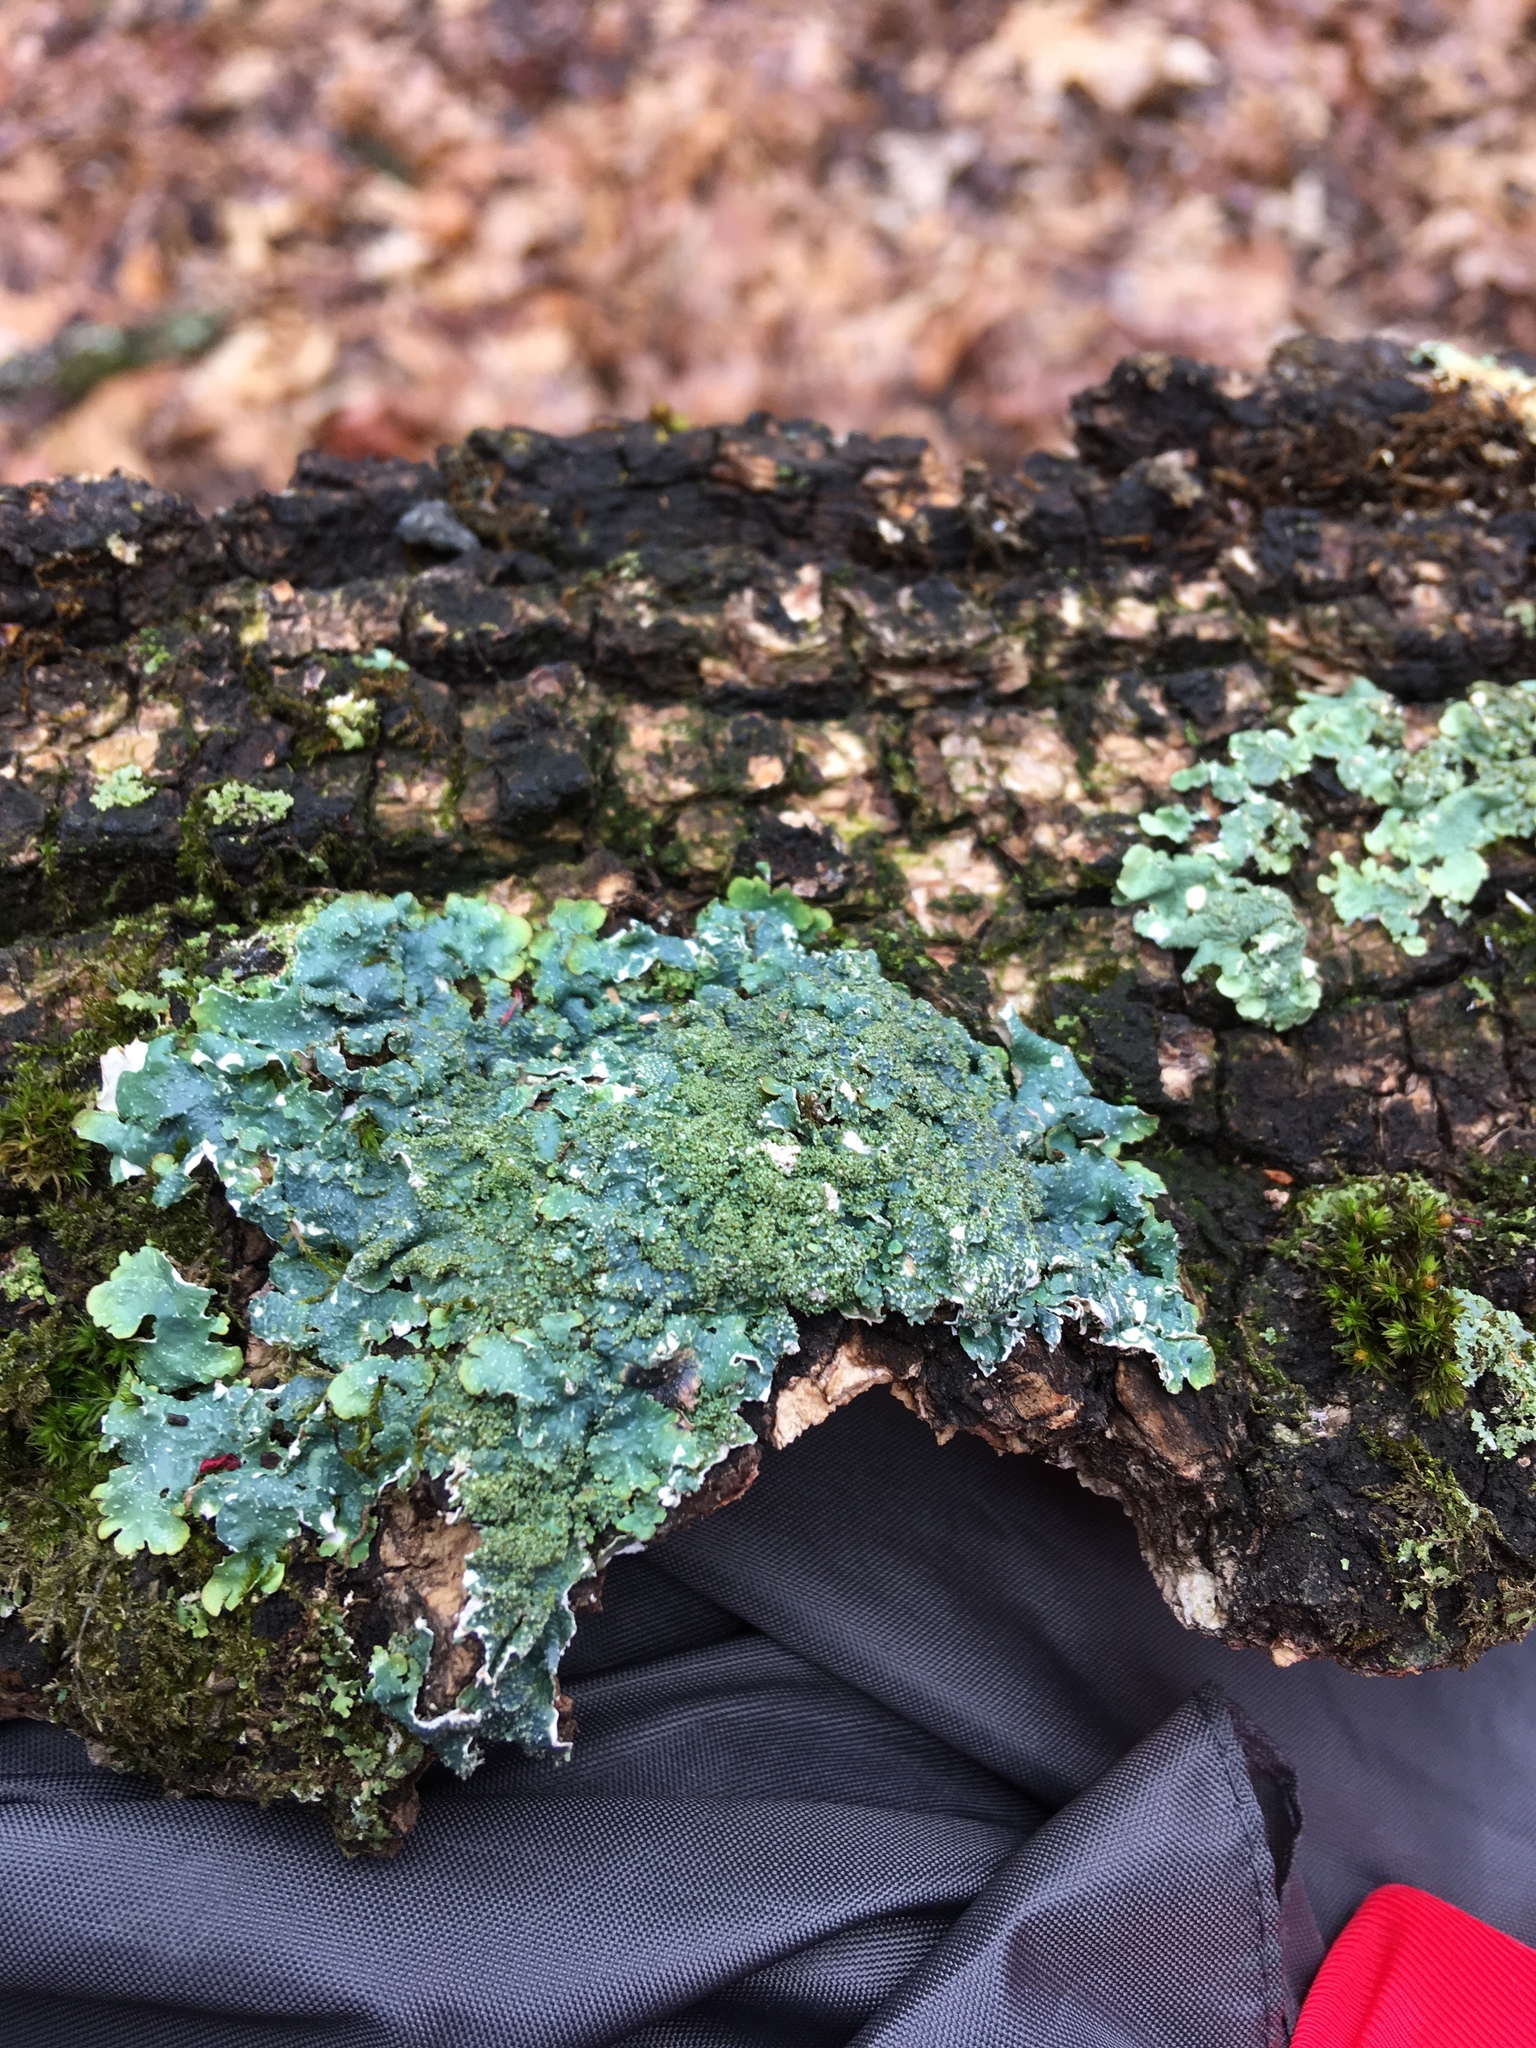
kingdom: Fungi
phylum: Ascomycota
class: Lecanoromycetes
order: Lecanorales
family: Parmeliaceae
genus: Punctelia
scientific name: Punctelia rudecta
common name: Rough speckled shield lichen
